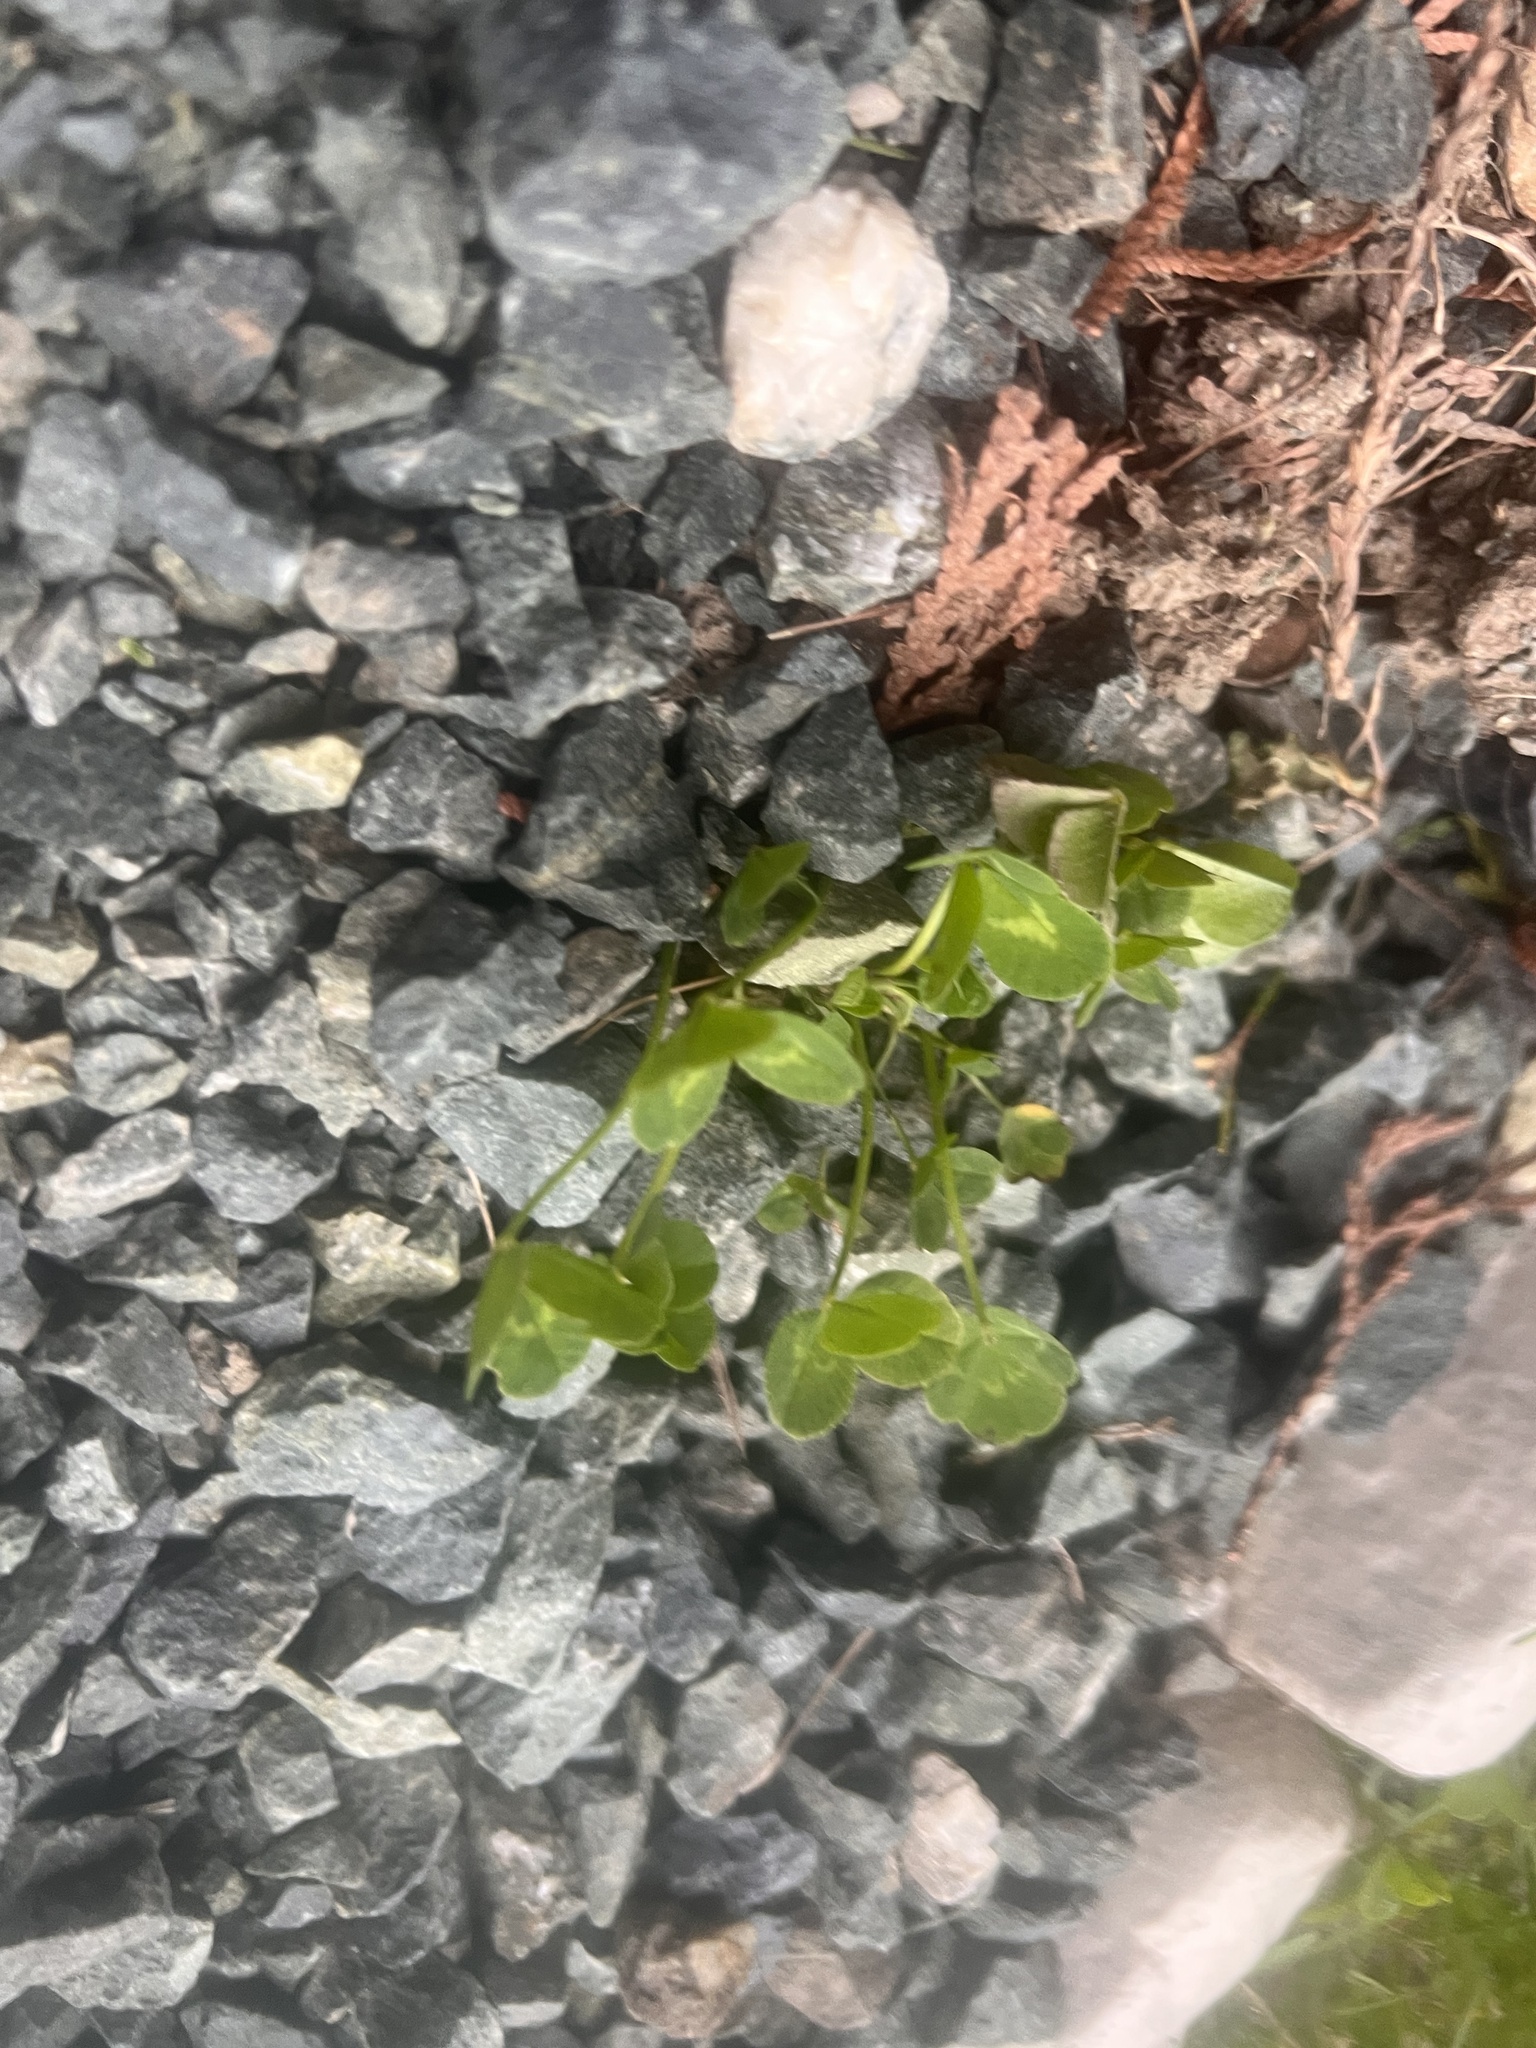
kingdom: Plantae
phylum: Tracheophyta
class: Magnoliopsida
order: Fabales
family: Fabaceae
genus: Trifolium
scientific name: Trifolium repens
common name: White clover
